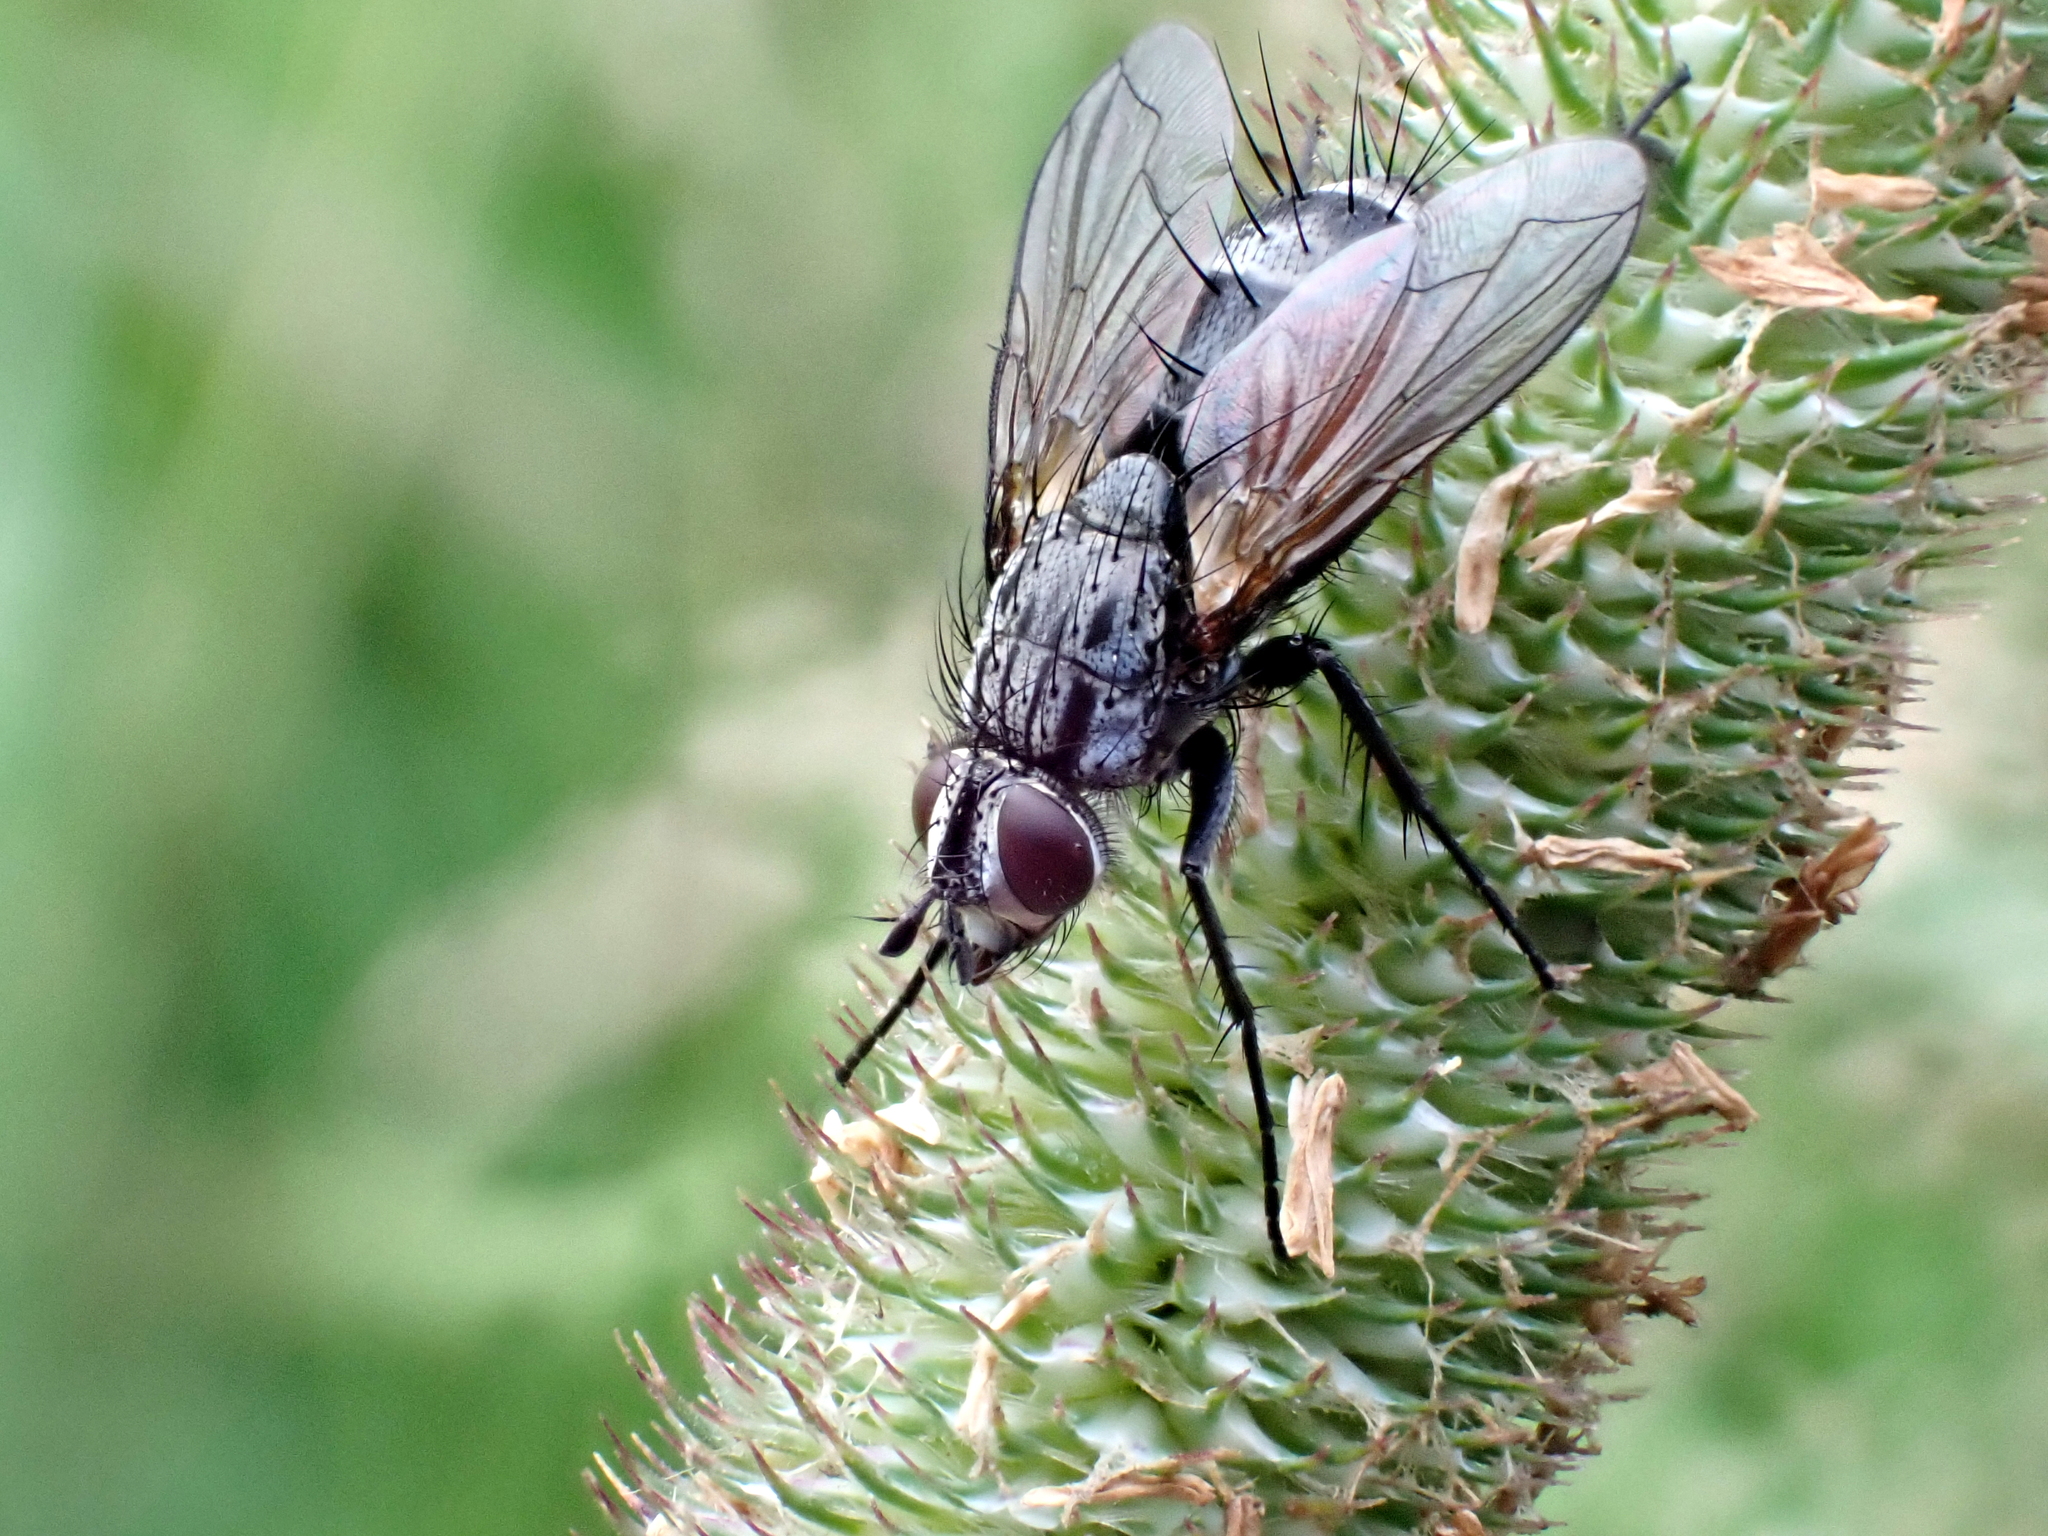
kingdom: Animalia
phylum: Arthropoda
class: Insecta
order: Diptera
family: Tachinidae
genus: Eriothrix
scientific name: Eriothrix rufomaculatus
